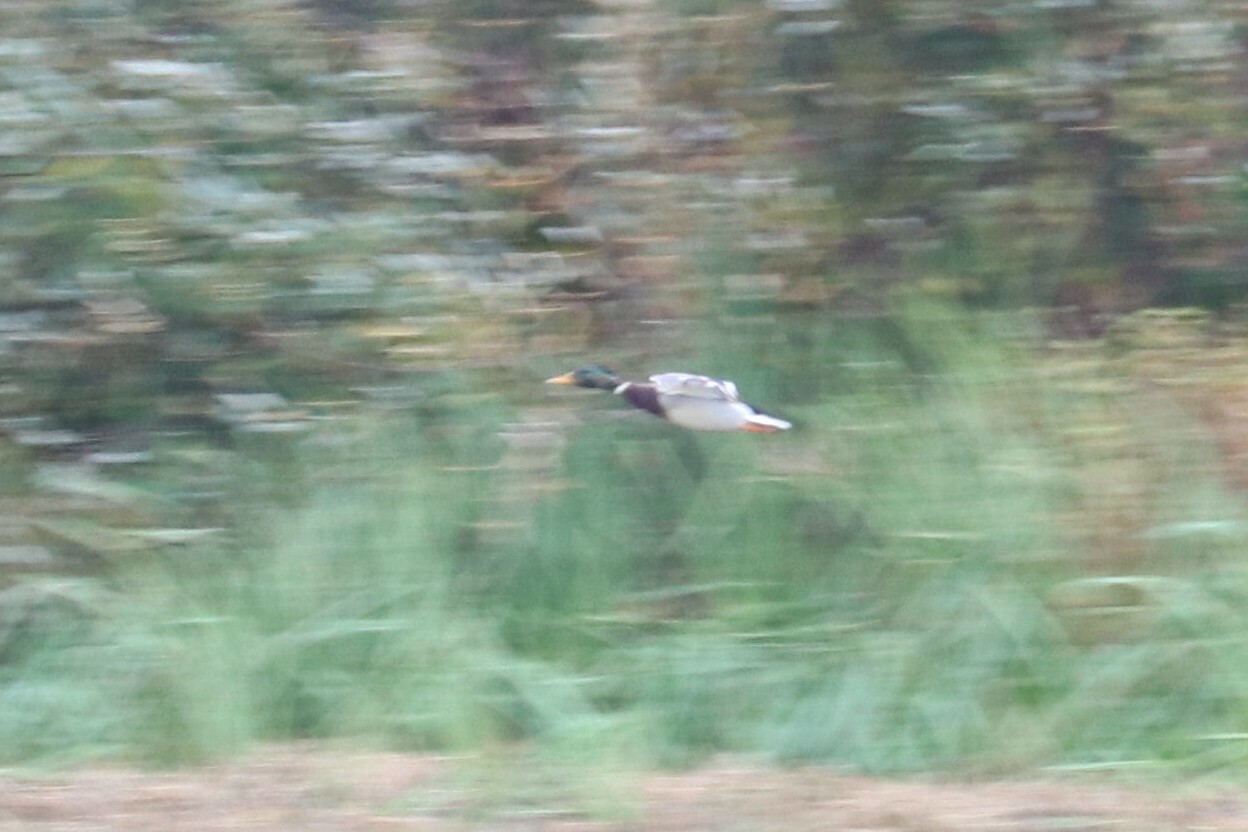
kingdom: Animalia
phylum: Chordata
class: Aves
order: Anseriformes
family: Anatidae
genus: Anas
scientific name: Anas platyrhynchos
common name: Mallard
